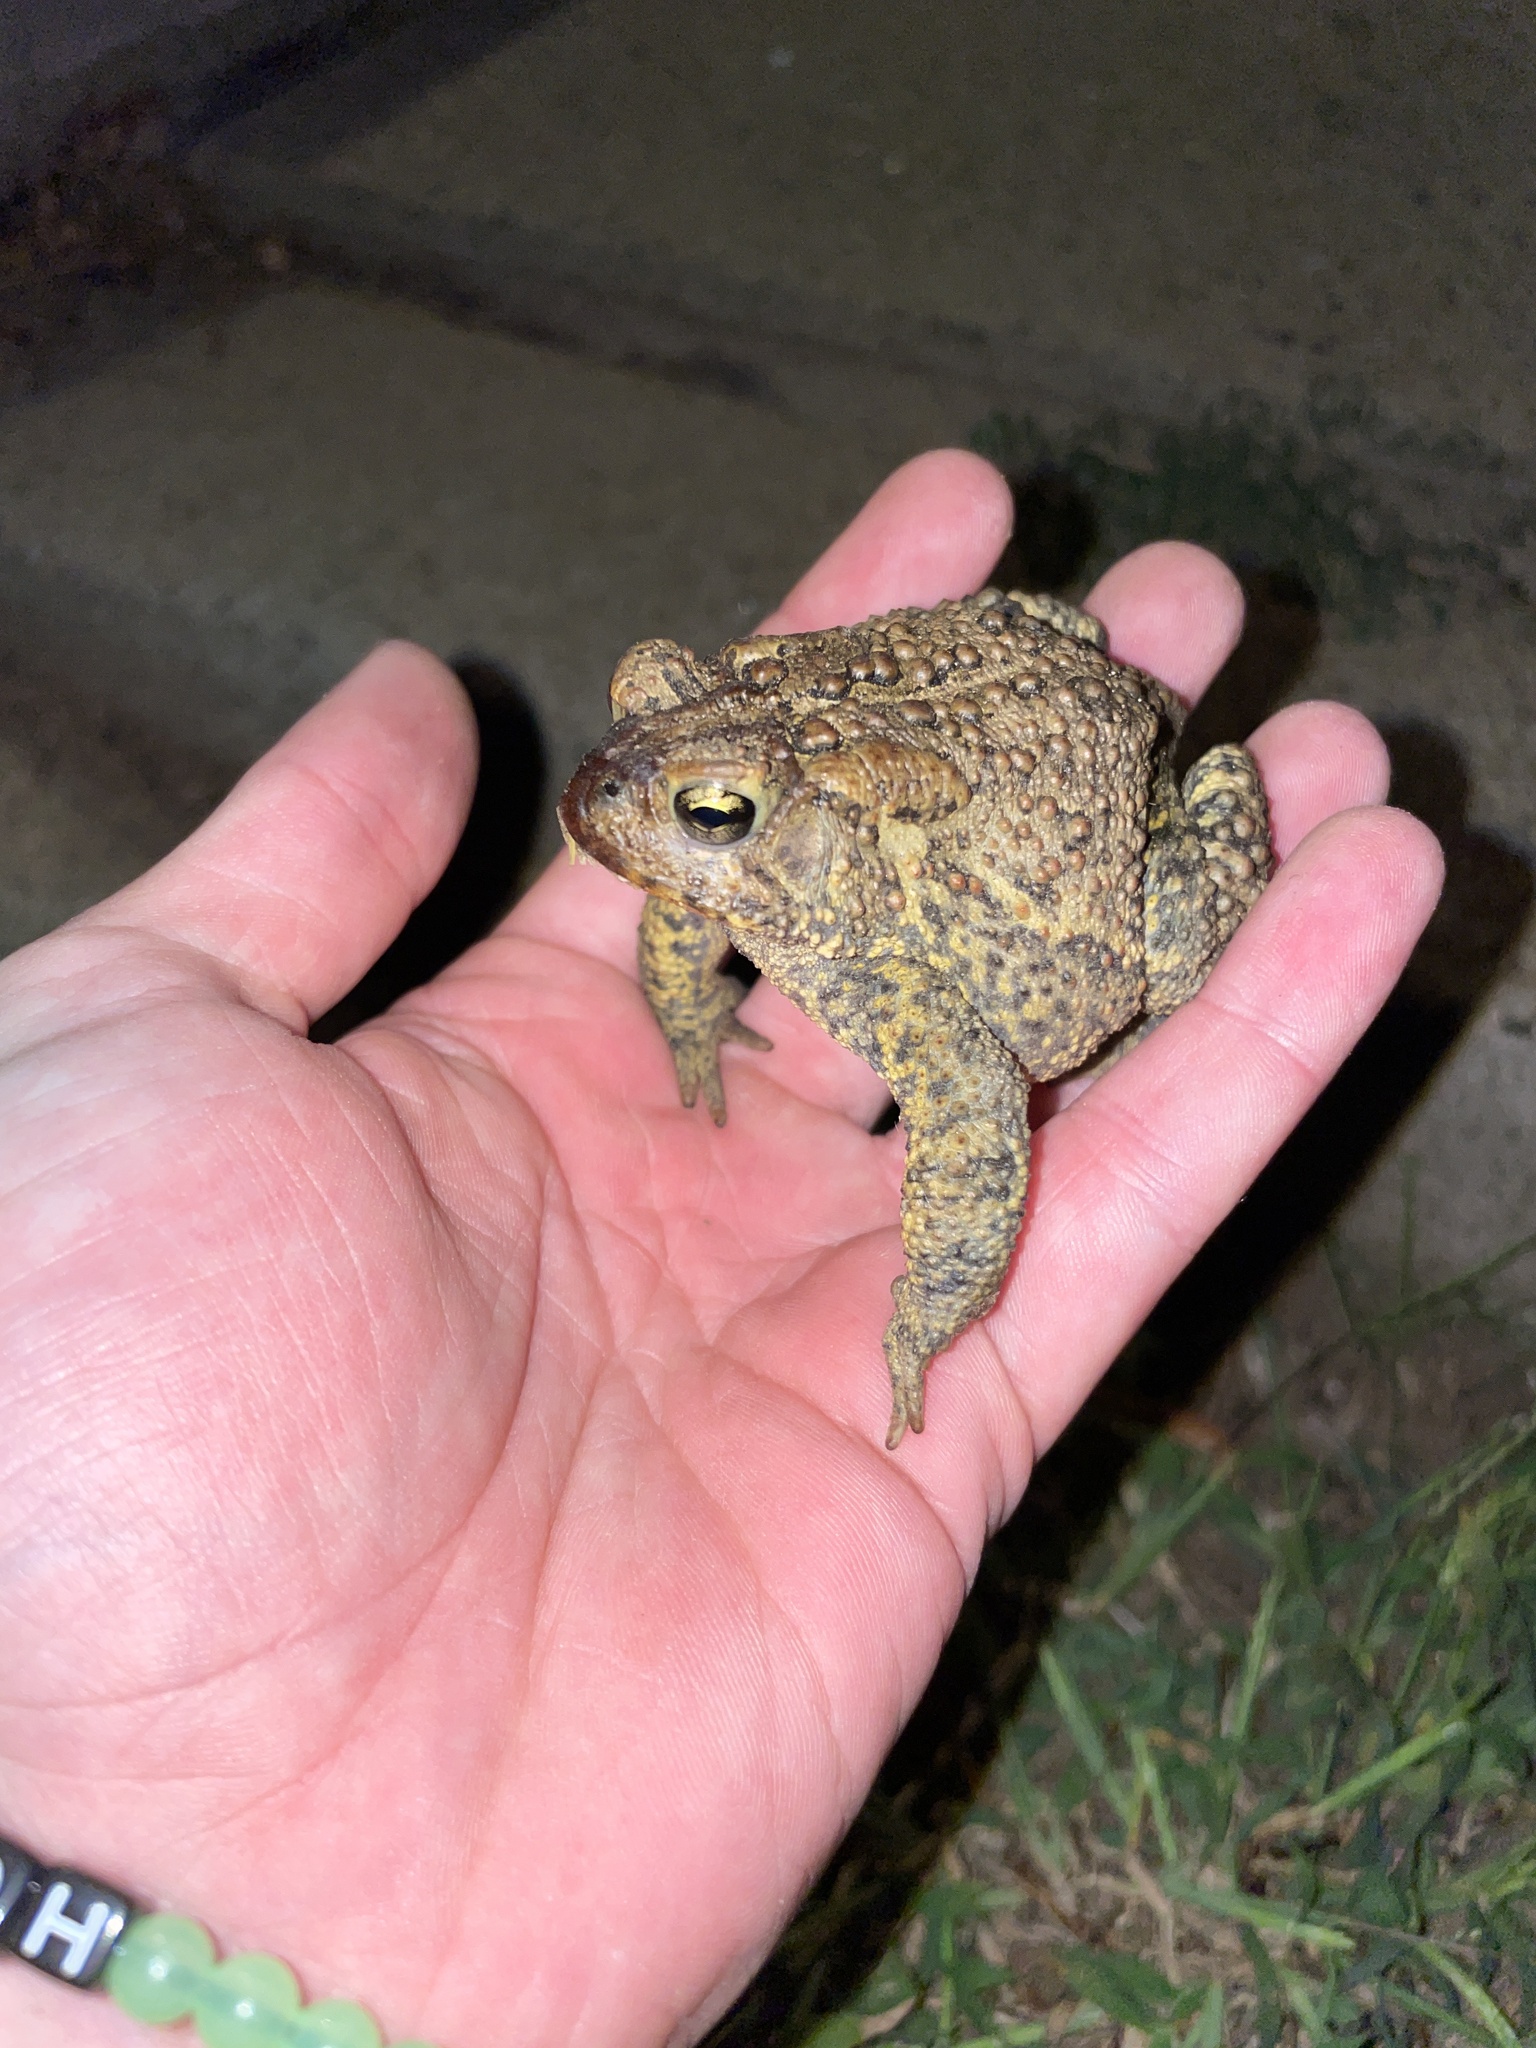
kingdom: Animalia
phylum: Chordata
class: Amphibia
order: Anura
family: Bufonidae
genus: Anaxyrus
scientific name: Anaxyrus americanus
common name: American toad
